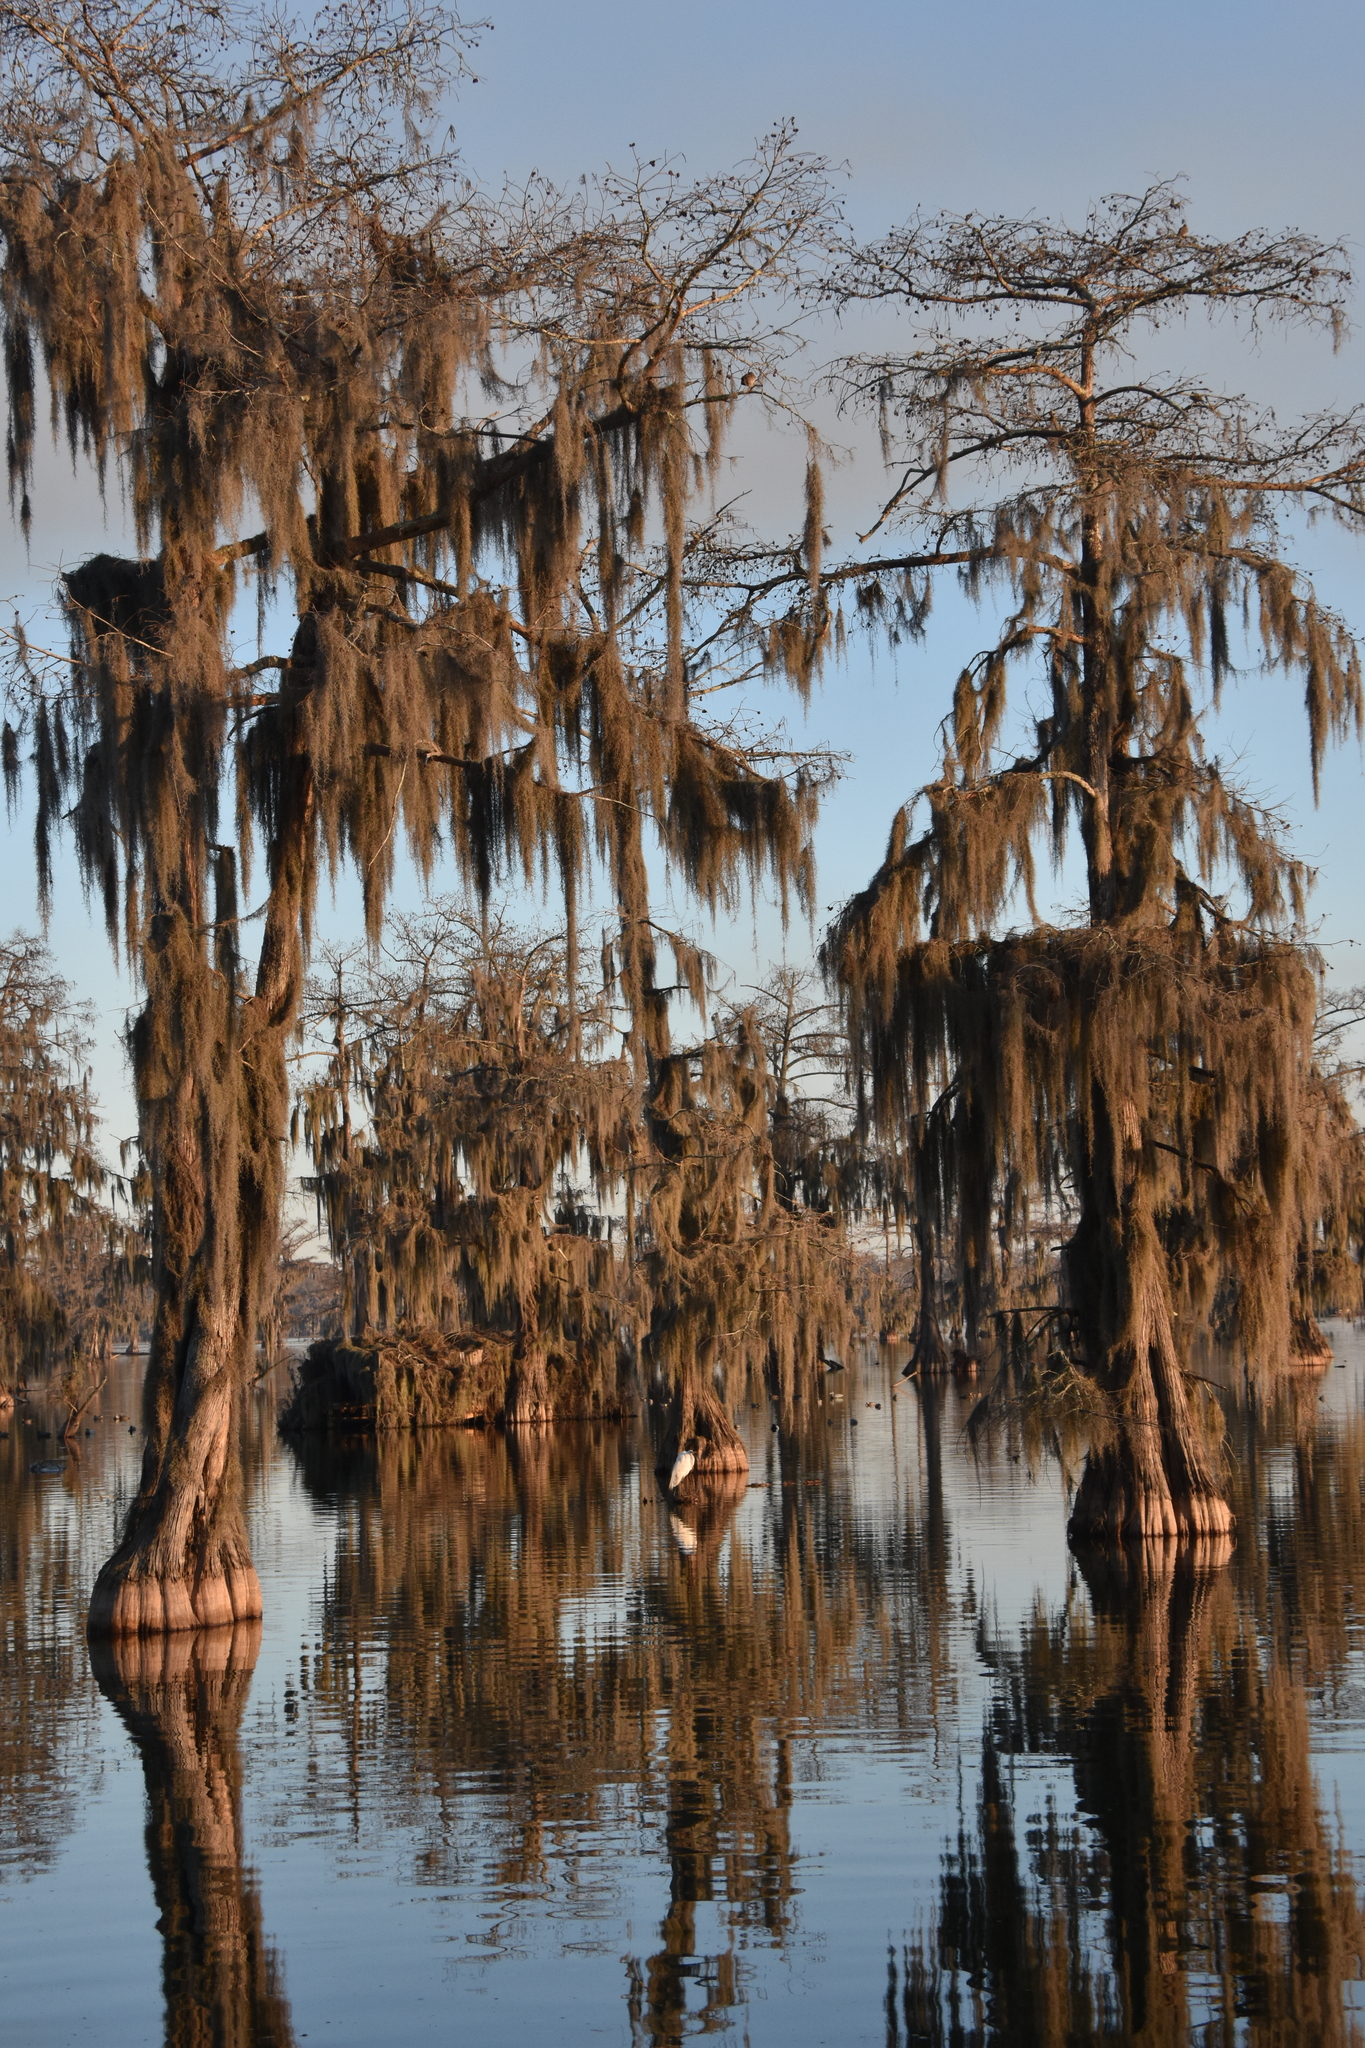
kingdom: Plantae
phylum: Tracheophyta
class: Pinopsida
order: Pinales
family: Cupressaceae
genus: Taxodium
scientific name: Taxodium distichum
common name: Bald cypress
